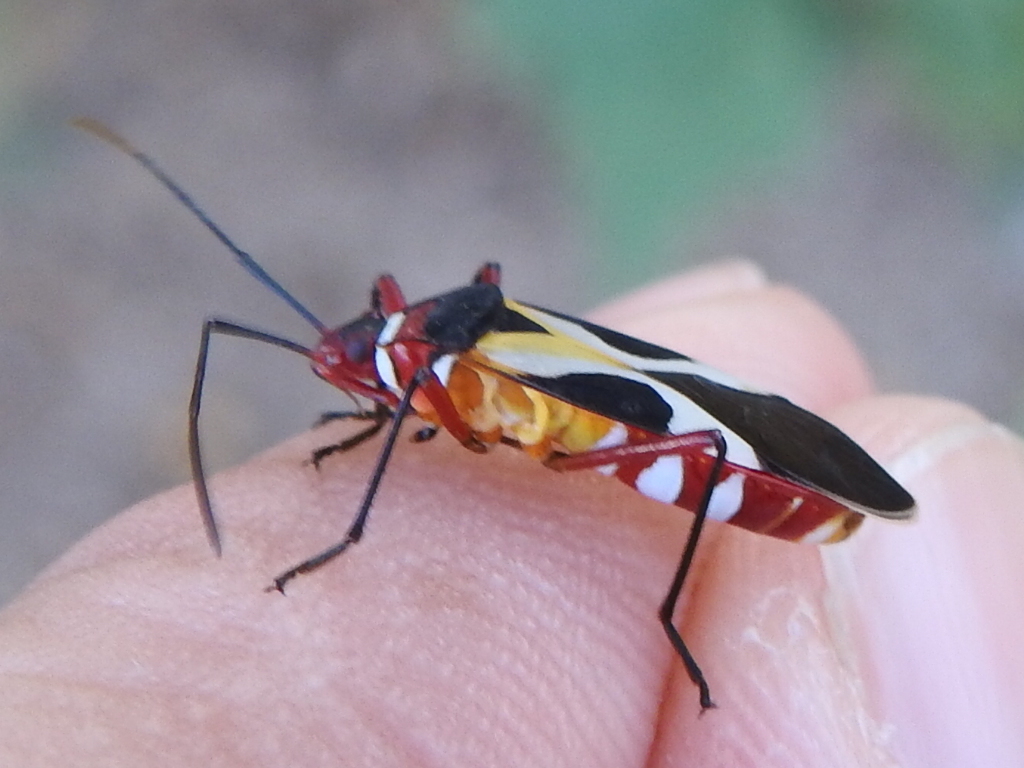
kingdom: Animalia
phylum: Arthropoda
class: Insecta
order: Hemiptera
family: Pyrrhocoridae
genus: Dysdercus
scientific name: Dysdercus concinnus
